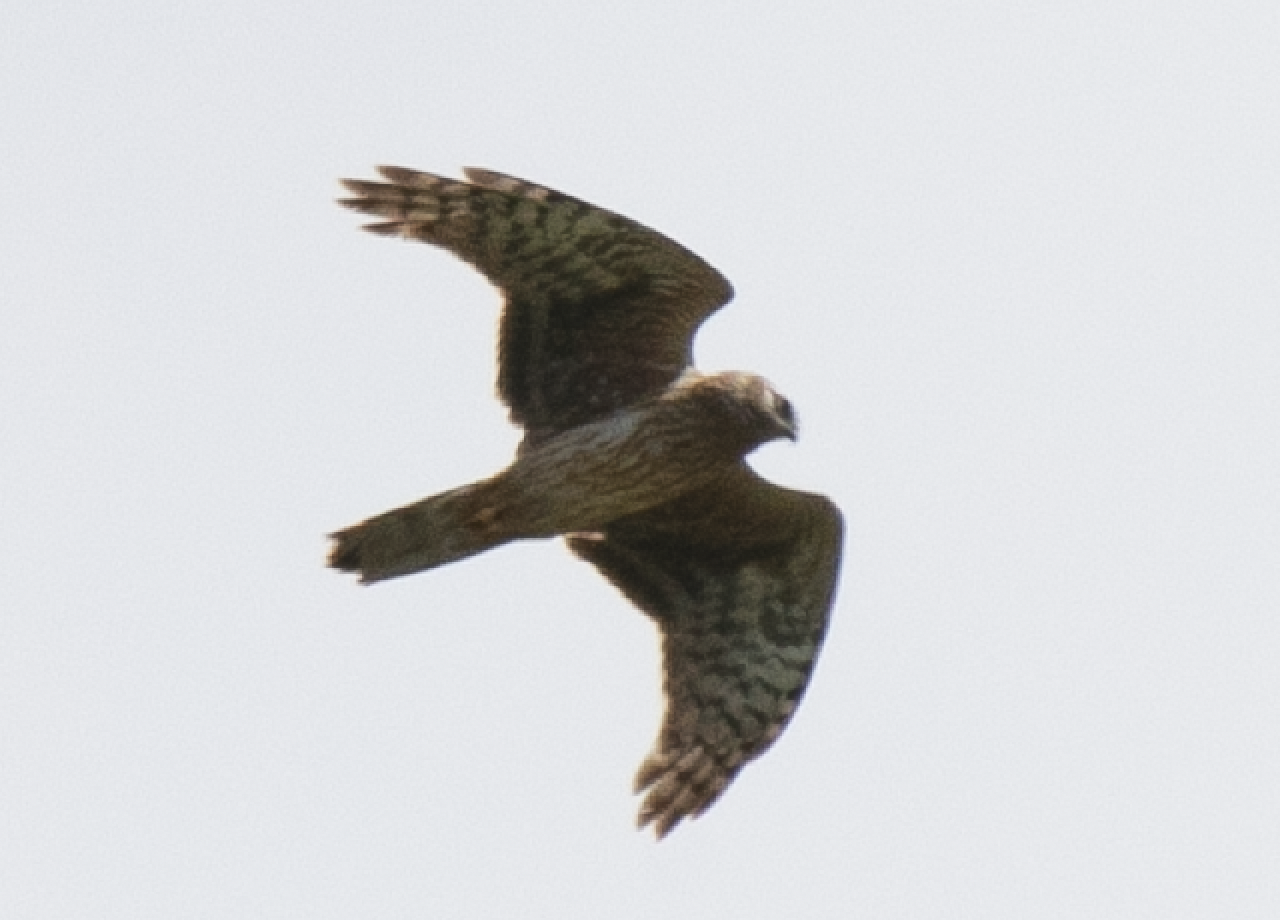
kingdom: Animalia
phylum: Chordata
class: Aves
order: Accipitriformes
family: Accipitridae
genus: Circus
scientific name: Circus cyaneus
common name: Hen harrier
